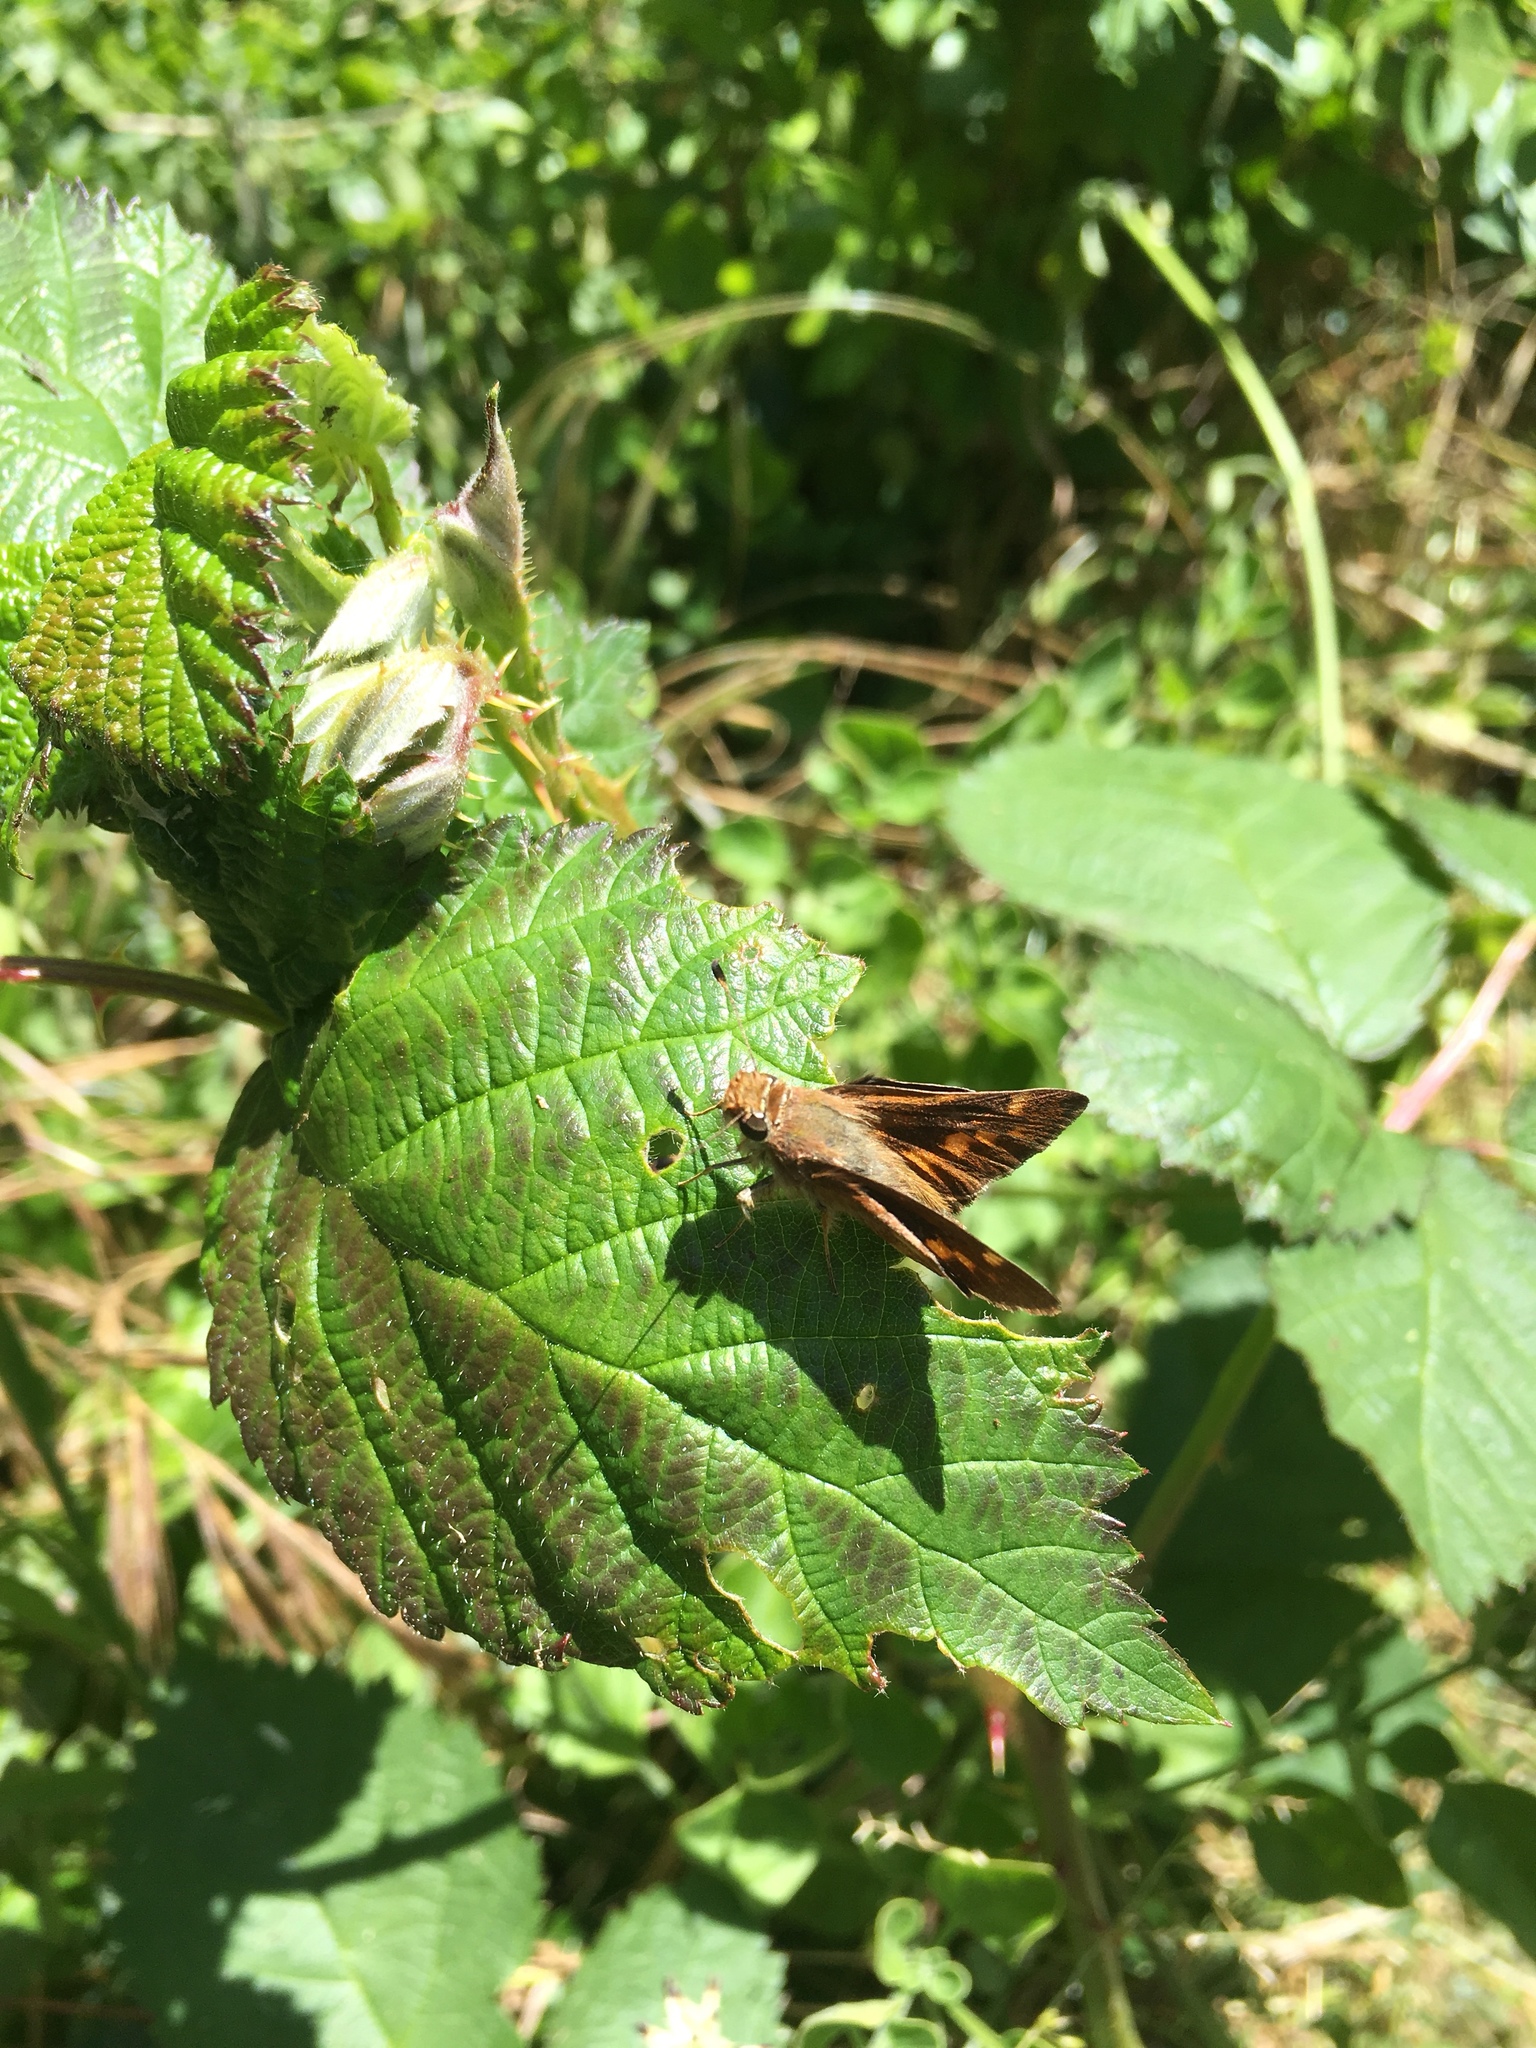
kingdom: Animalia
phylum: Arthropoda
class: Insecta
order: Lepidoptera
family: Hesperiidae
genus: Lon
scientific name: Lon melane
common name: Umber skipper
